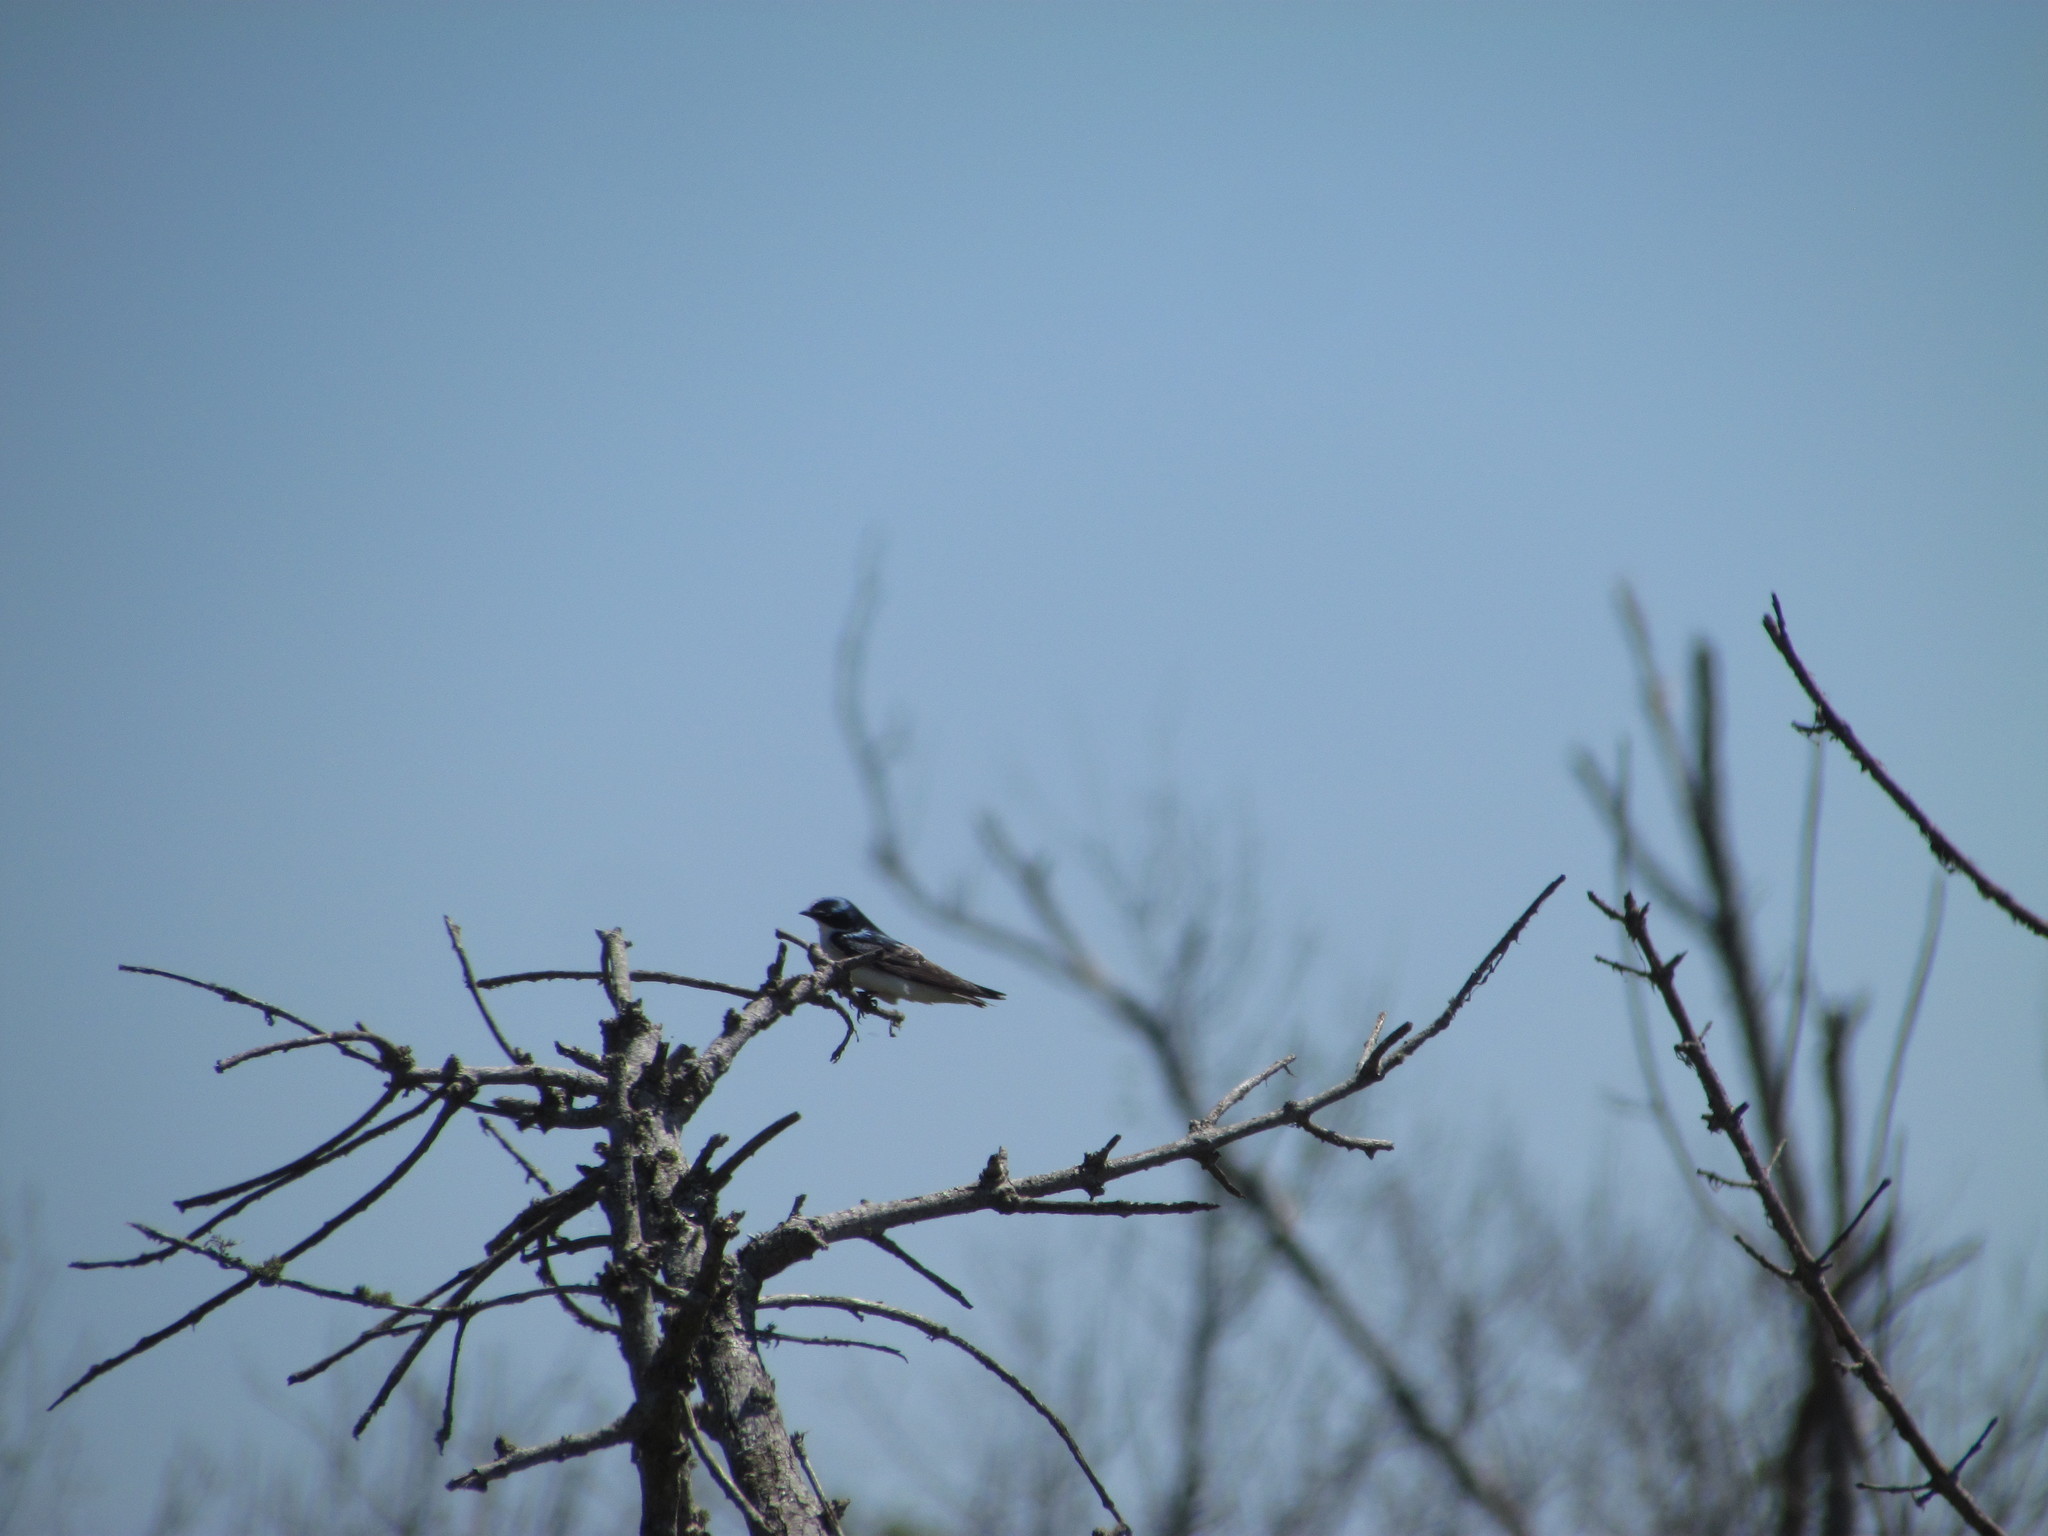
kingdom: Animalia
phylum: Chordata
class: Aves
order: Passeriformes
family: Hirundinidae
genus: Tachycineta
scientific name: Tachycineta leucorrhoa
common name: White-rumped swallow
